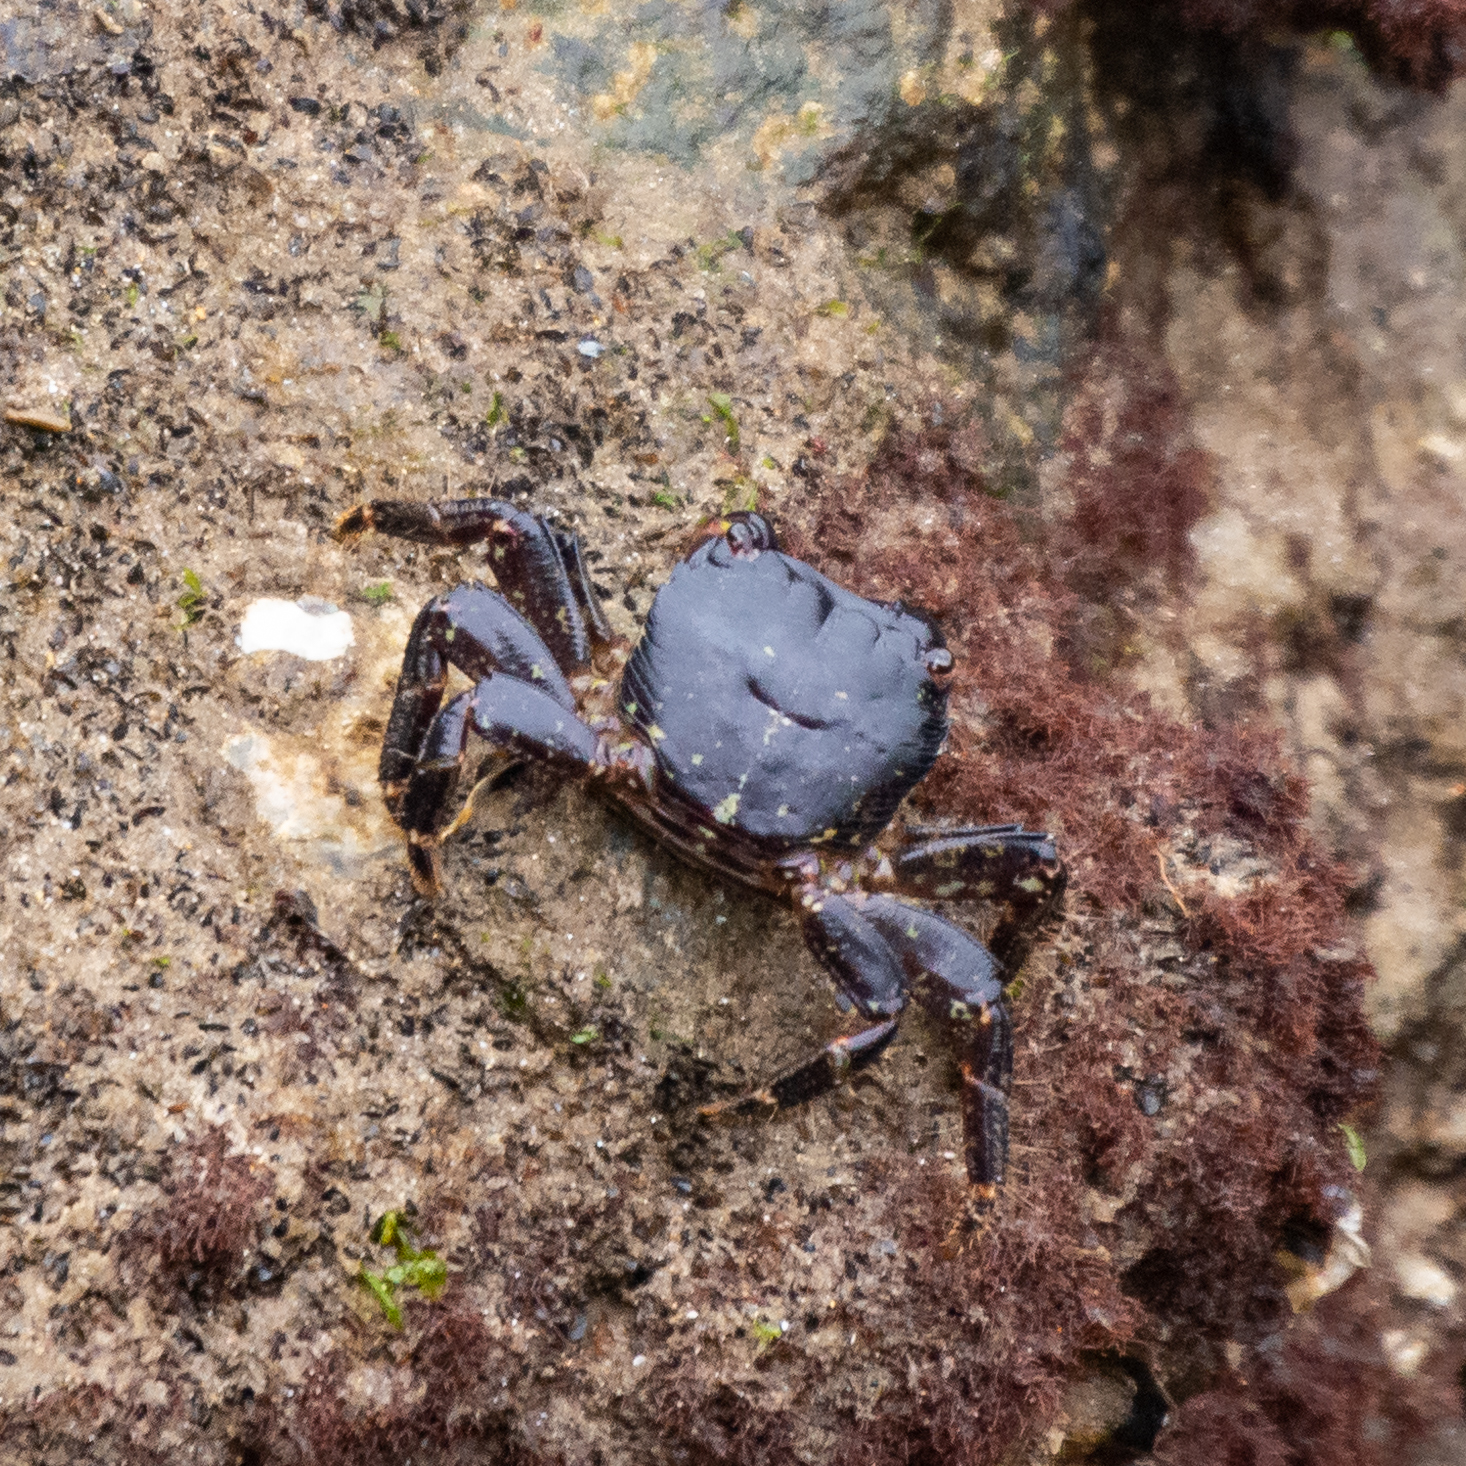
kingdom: Animalia
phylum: Arthropoda
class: Malacostraca
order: Decapoda
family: Grapsidae
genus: Pachygrapsus
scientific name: Pachygrapsus marmoratus
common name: Marbled rock crab
